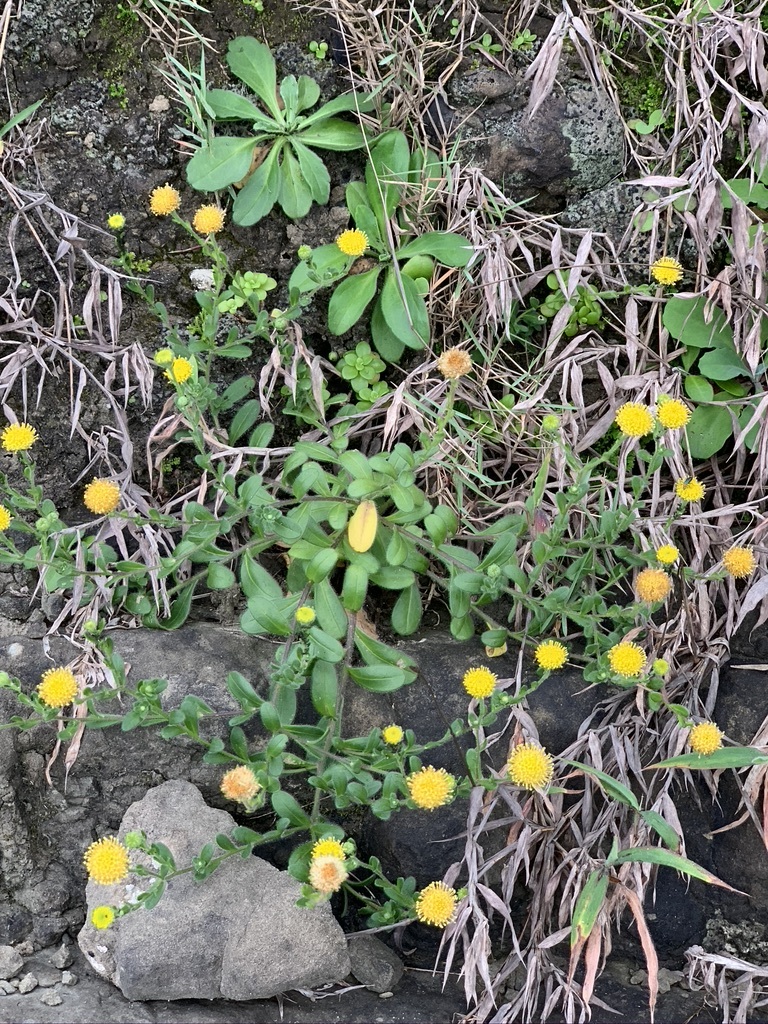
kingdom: Plantae
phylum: Tracheophyta
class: Magnoliopsida
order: Asterales
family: Asteraceae
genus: Heteropappus
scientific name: Heteropappus oldhamii
